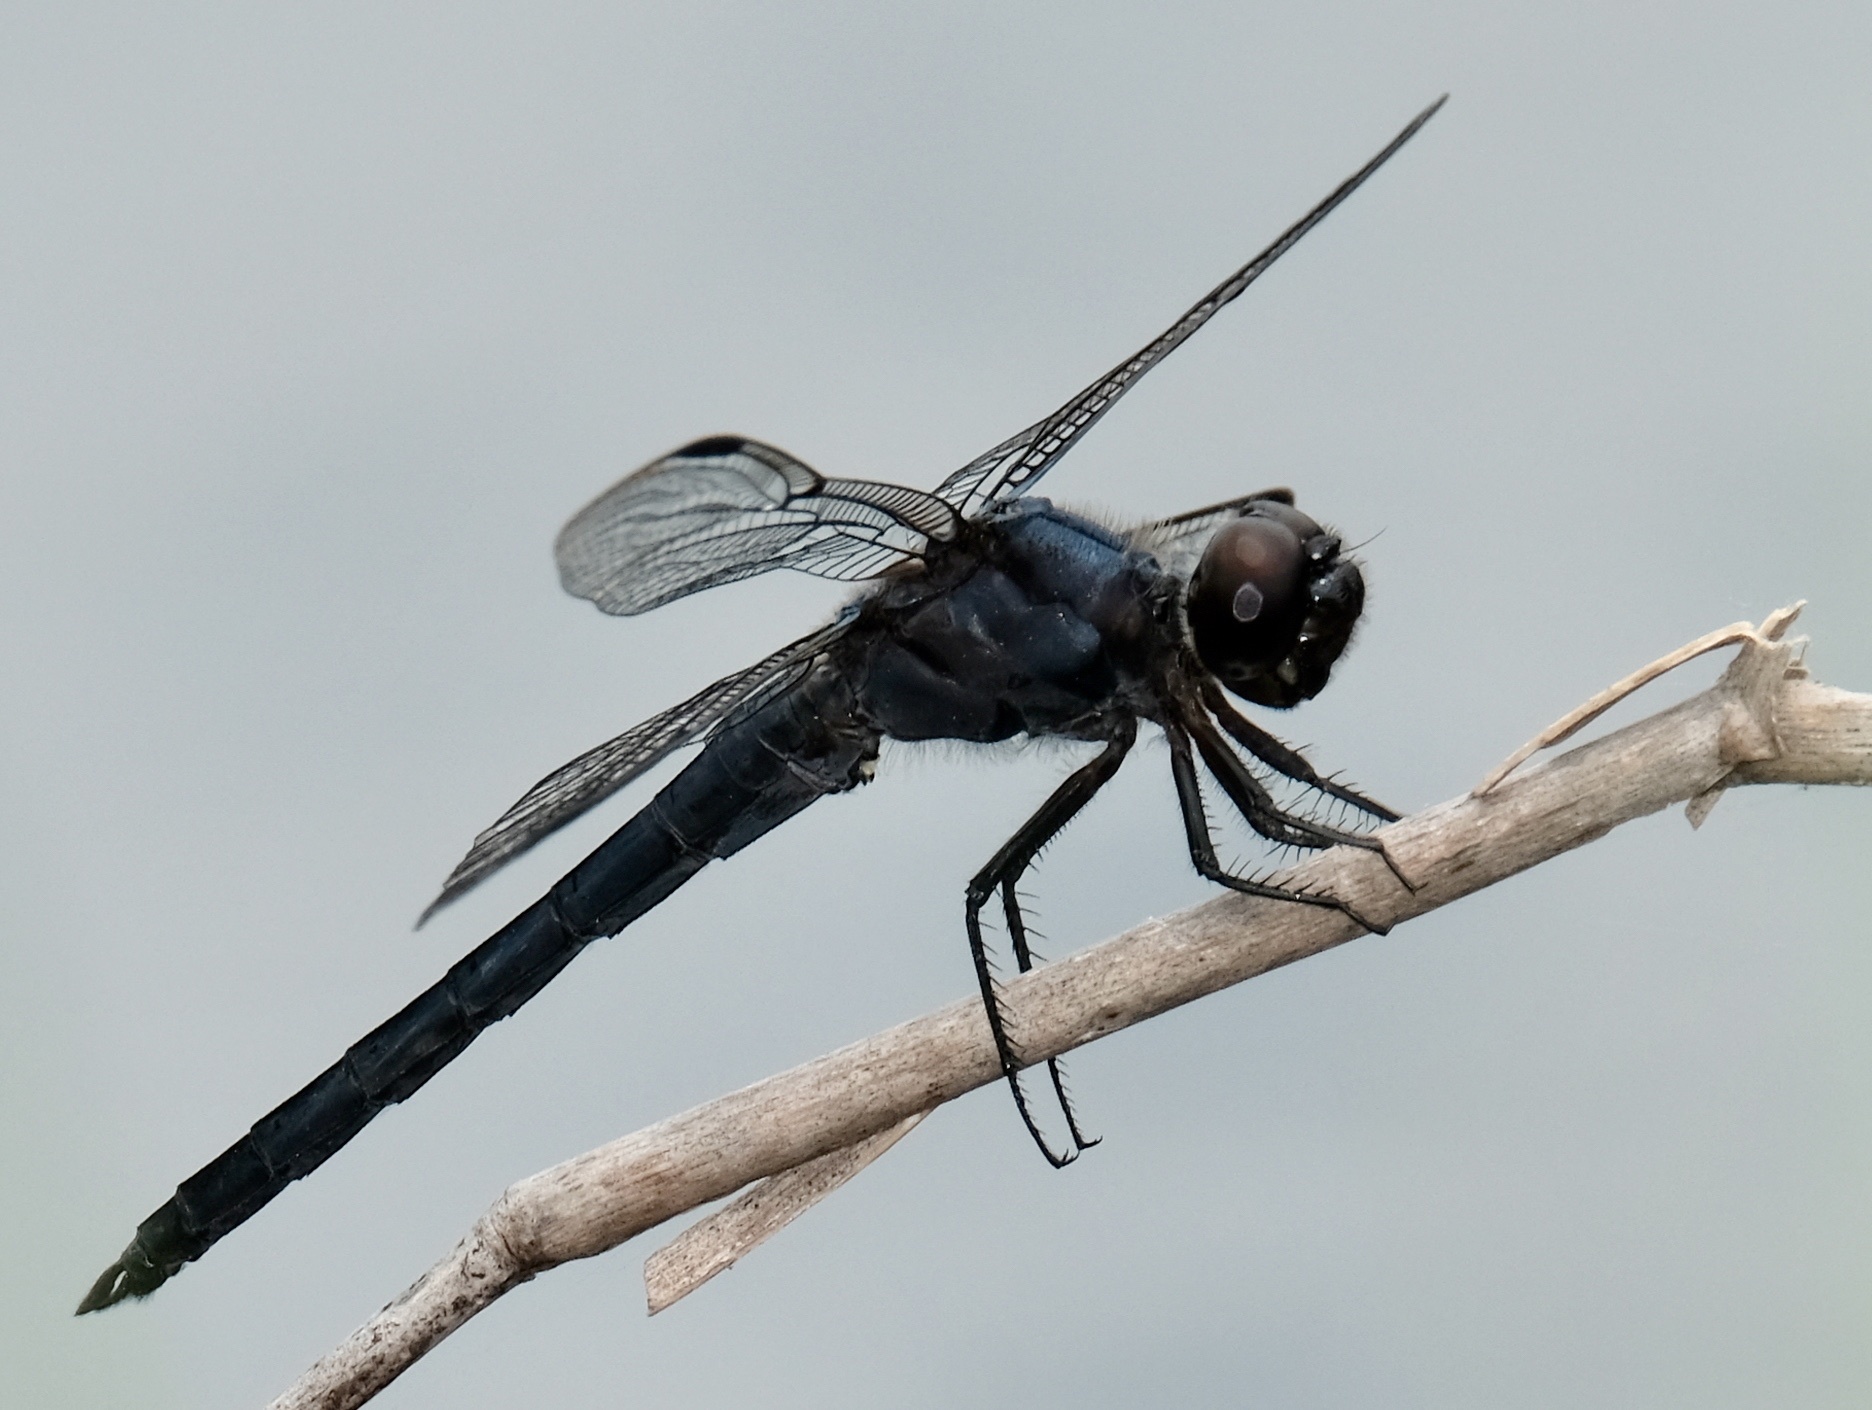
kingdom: Animalia
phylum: Arthropoda
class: Insecta
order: Odonata
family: Libellulidae
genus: Libellula
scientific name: Libellula incesta
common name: Slaty skimmer
